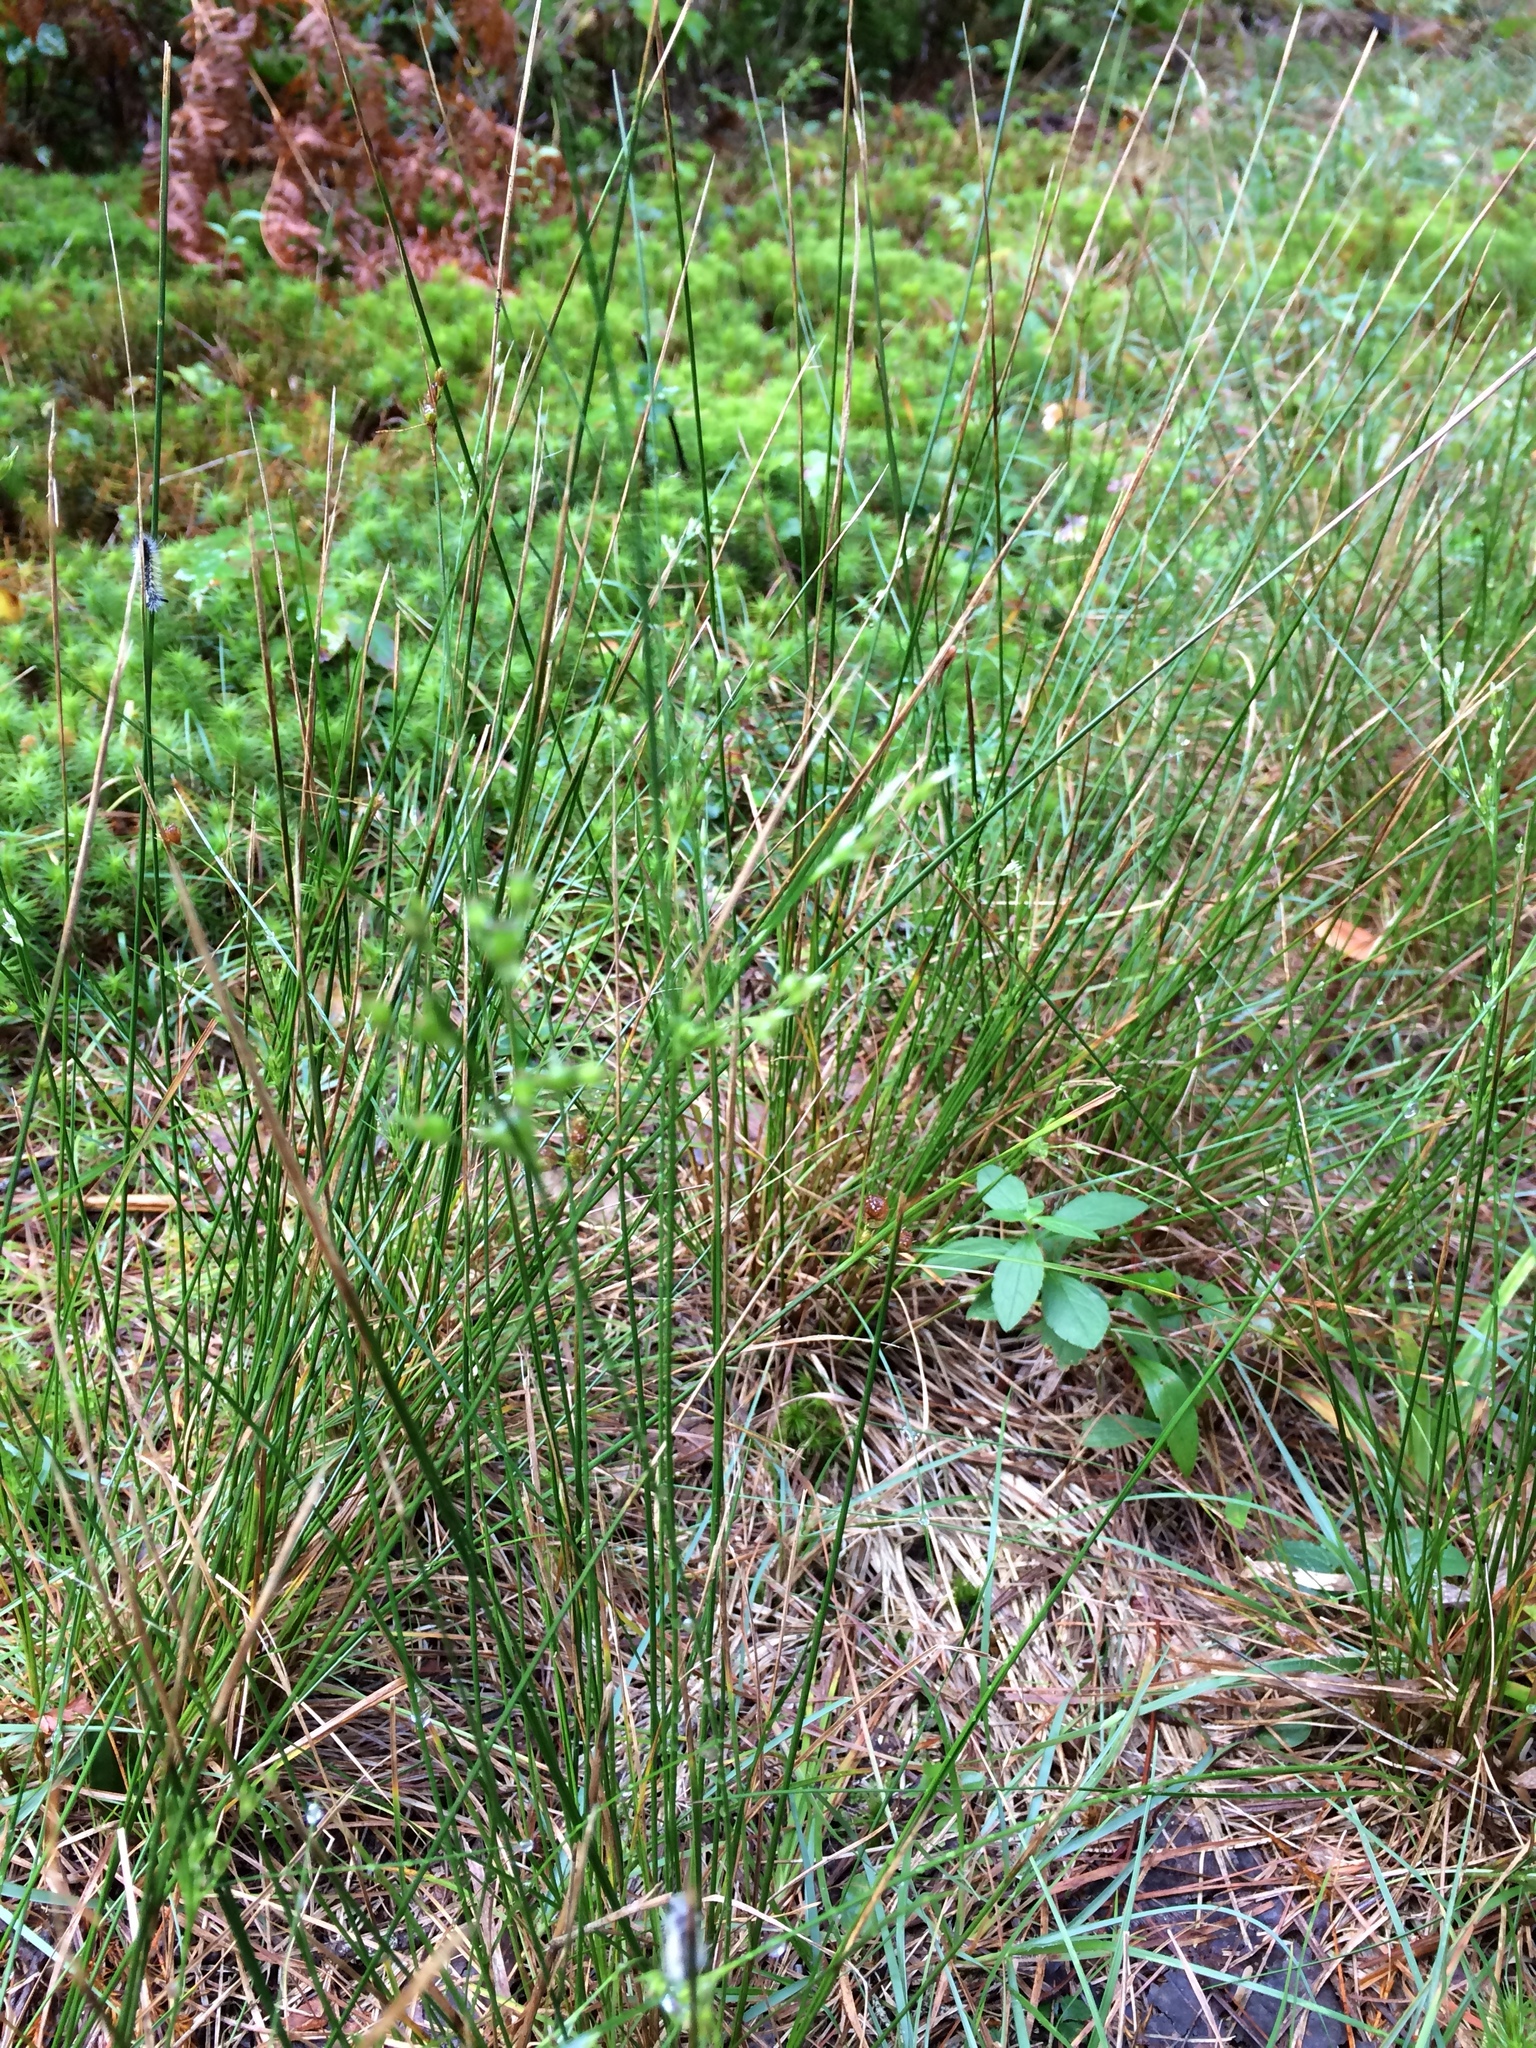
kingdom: Plantae
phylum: Tracheophyta
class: Liliopsida
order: Poales
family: Juncaceae
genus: Juncus
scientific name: Juncus tenuis
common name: Slender rush
